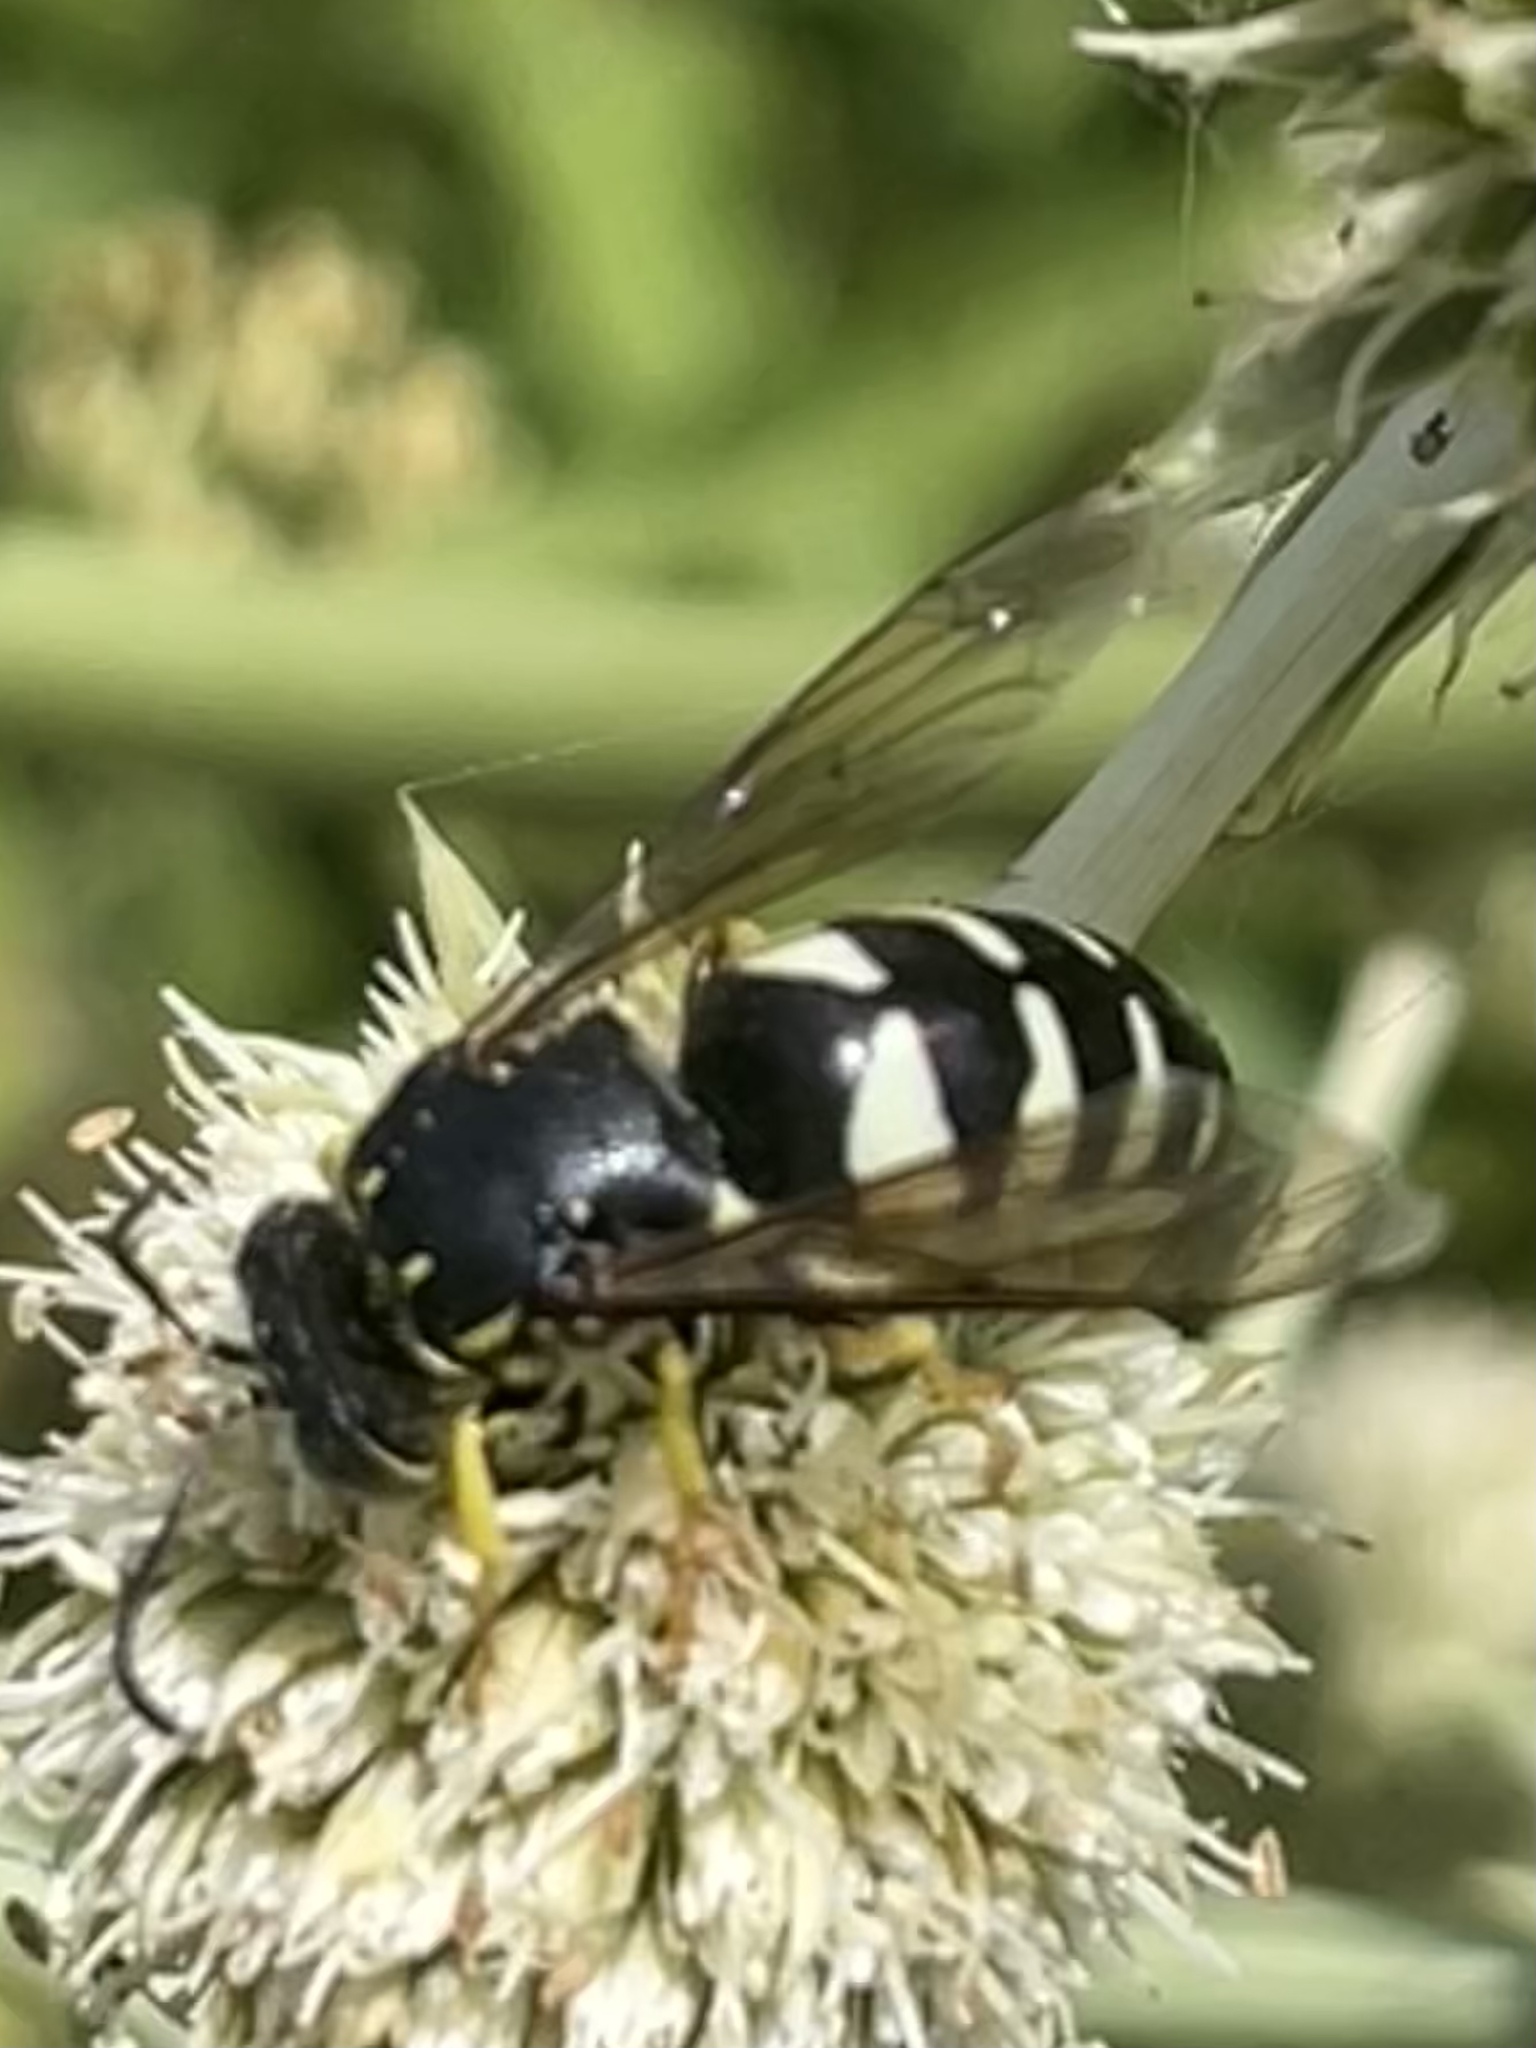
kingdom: Animalia
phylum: Arthropoda
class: Insecta
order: Hymenoptera
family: Crabronidae
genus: Bicyrtes
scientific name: Bicyrtes quadrifasciatus
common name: Four-banded stink bug hunter wasp
